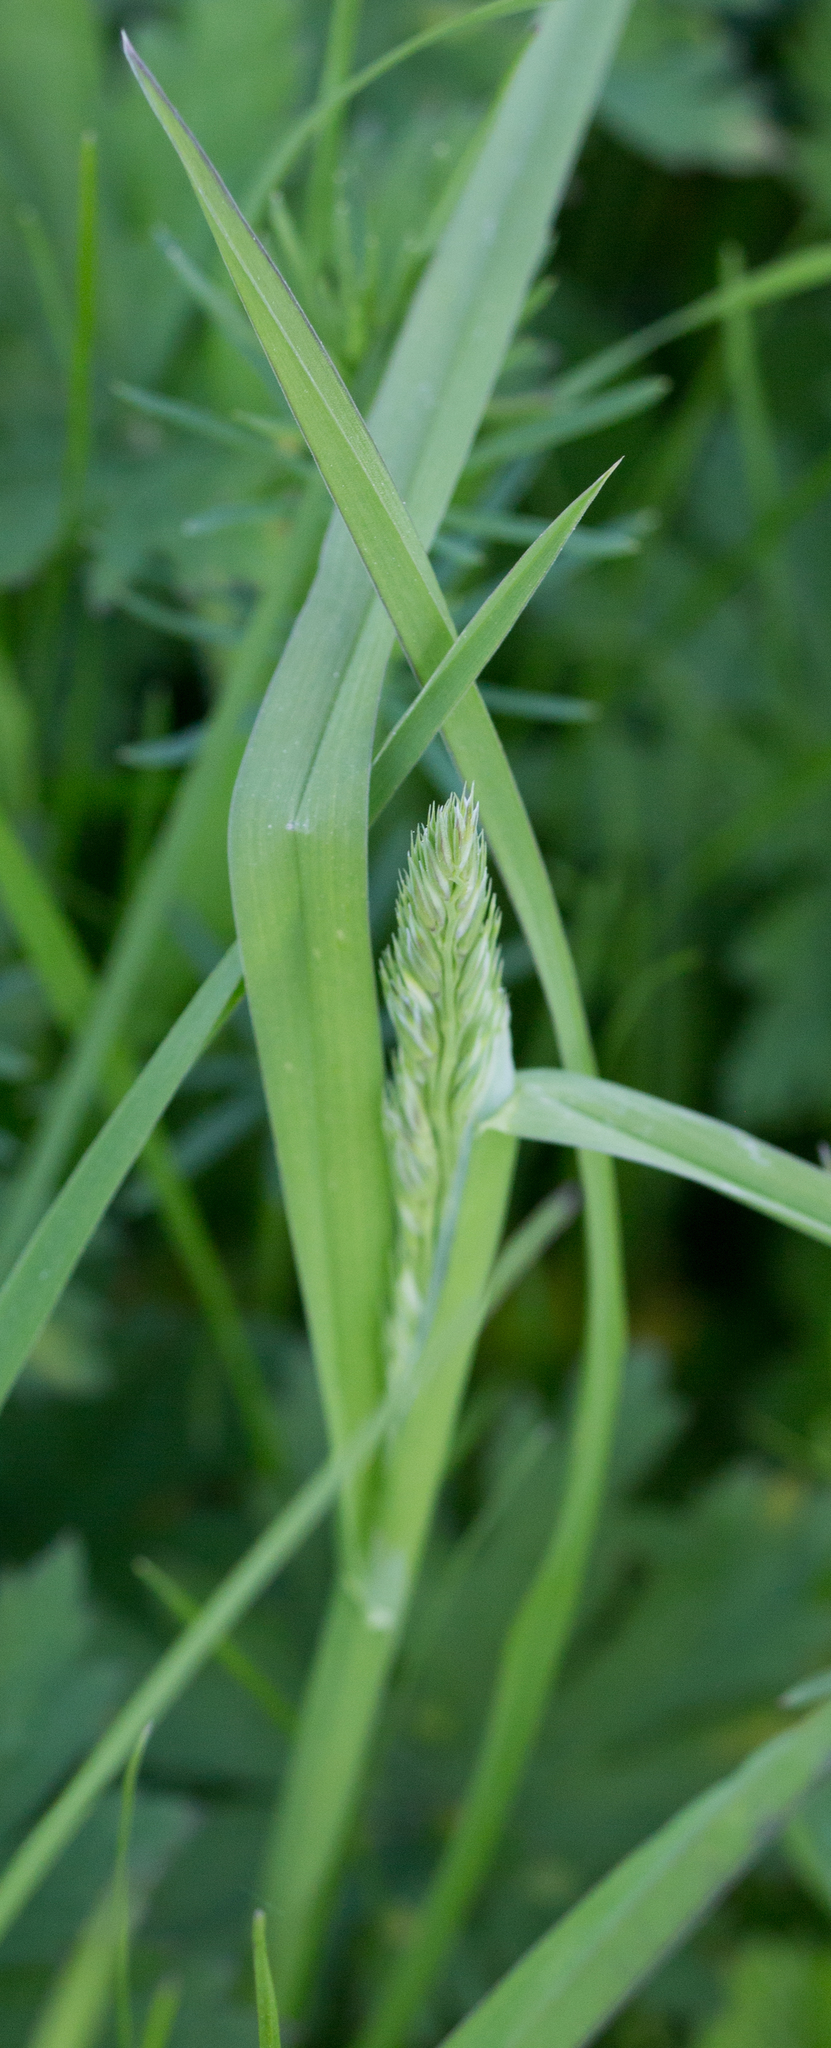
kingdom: Plantae
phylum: Tracheophyta
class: Liliopsida
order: Poales
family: Poaceae
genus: Dactylis
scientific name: Dactylis glomerata
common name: Orchardgrass
